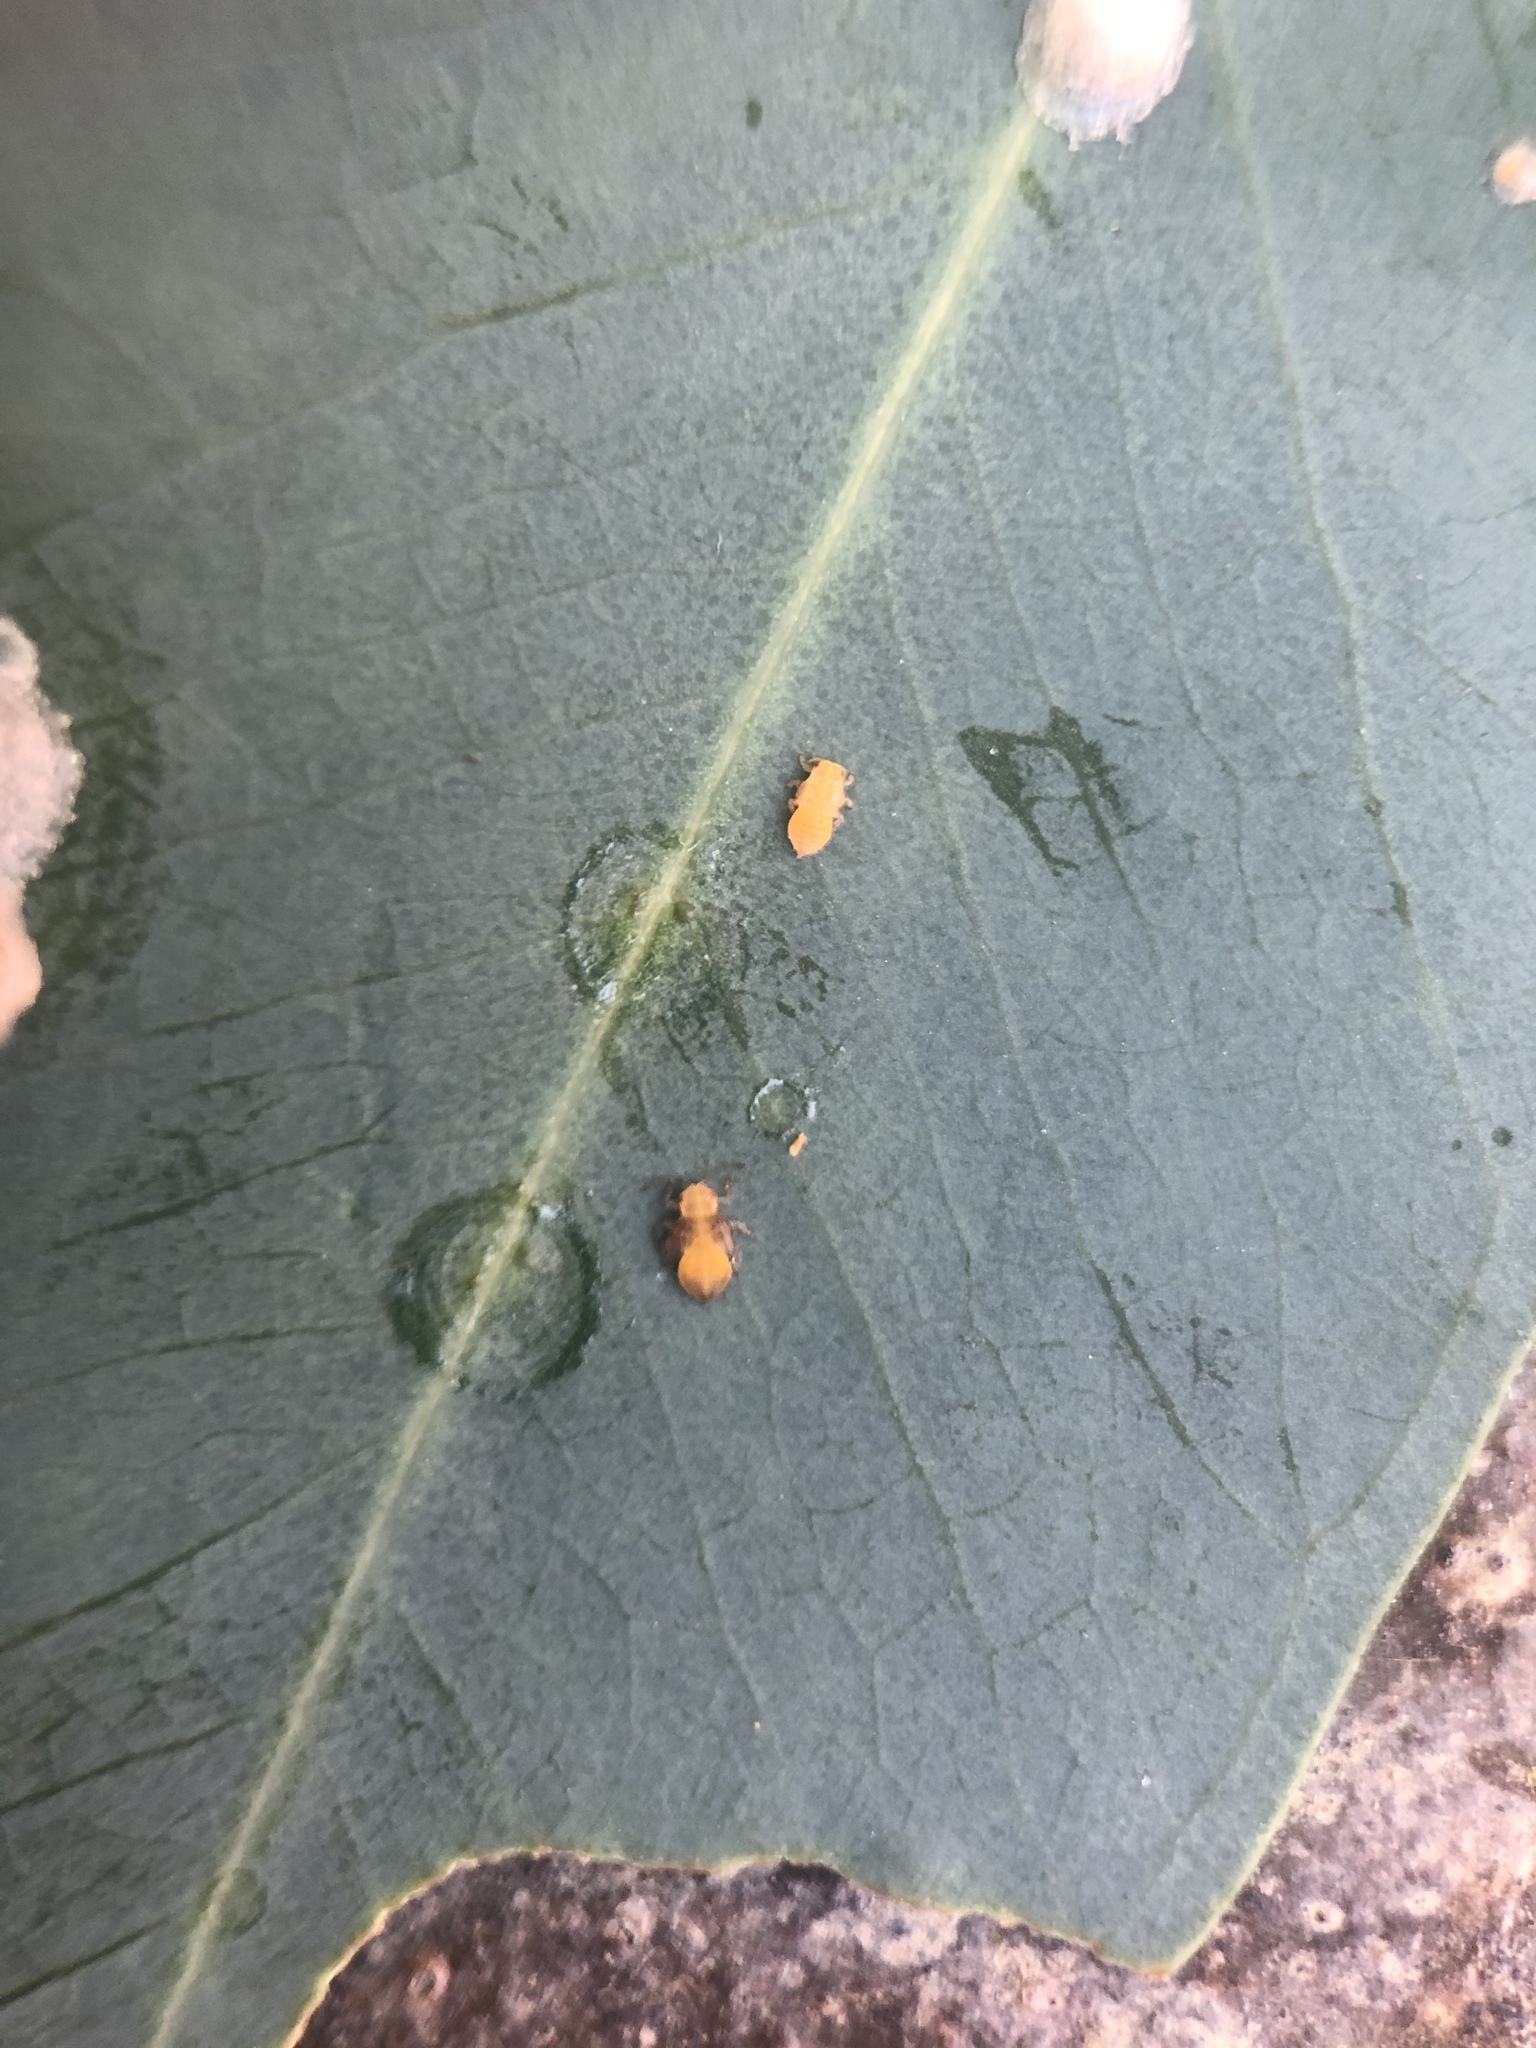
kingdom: Animalia
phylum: Arthropoda
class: Insecta
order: Hemiptera
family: Aphalaridae
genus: Glycaspis
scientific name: Glycaspis brimblecombei
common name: Red gum lerp psyllid
